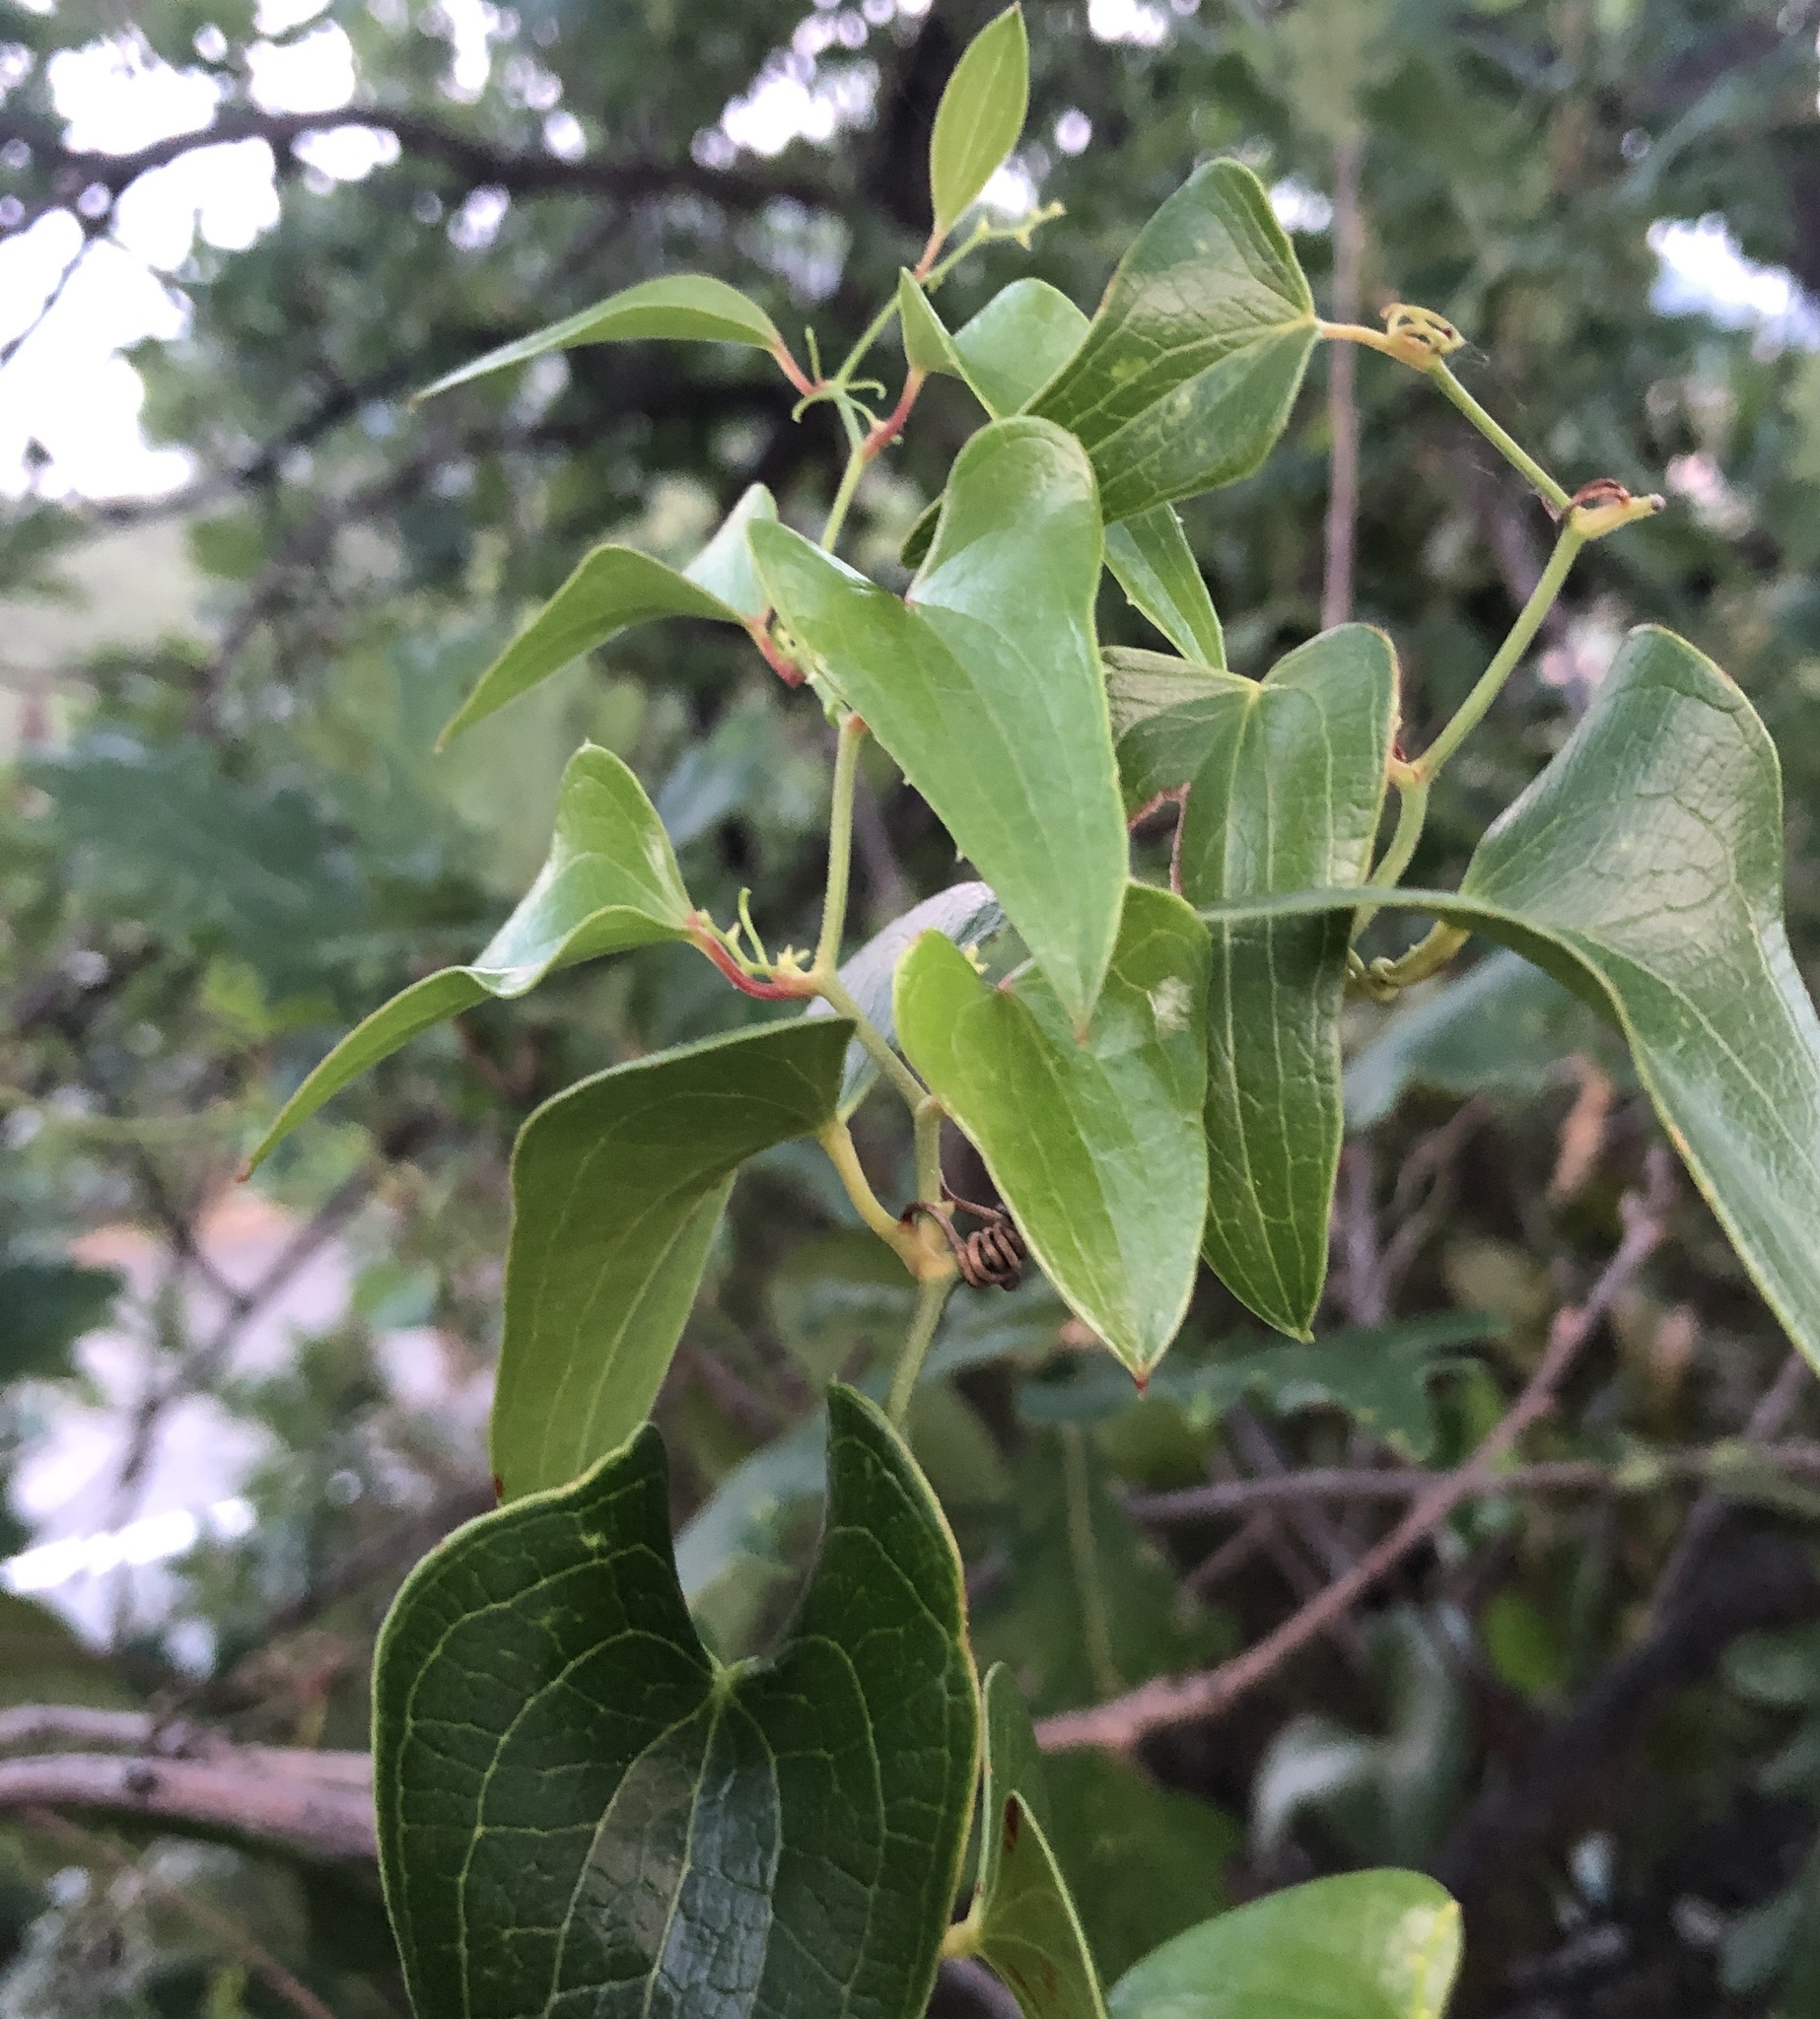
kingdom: Plantae
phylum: Tracheophyta
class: Liliopsida
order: Liliales
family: Smilacaceae
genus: Smilax
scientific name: Smilax aspera
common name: Common smilax
